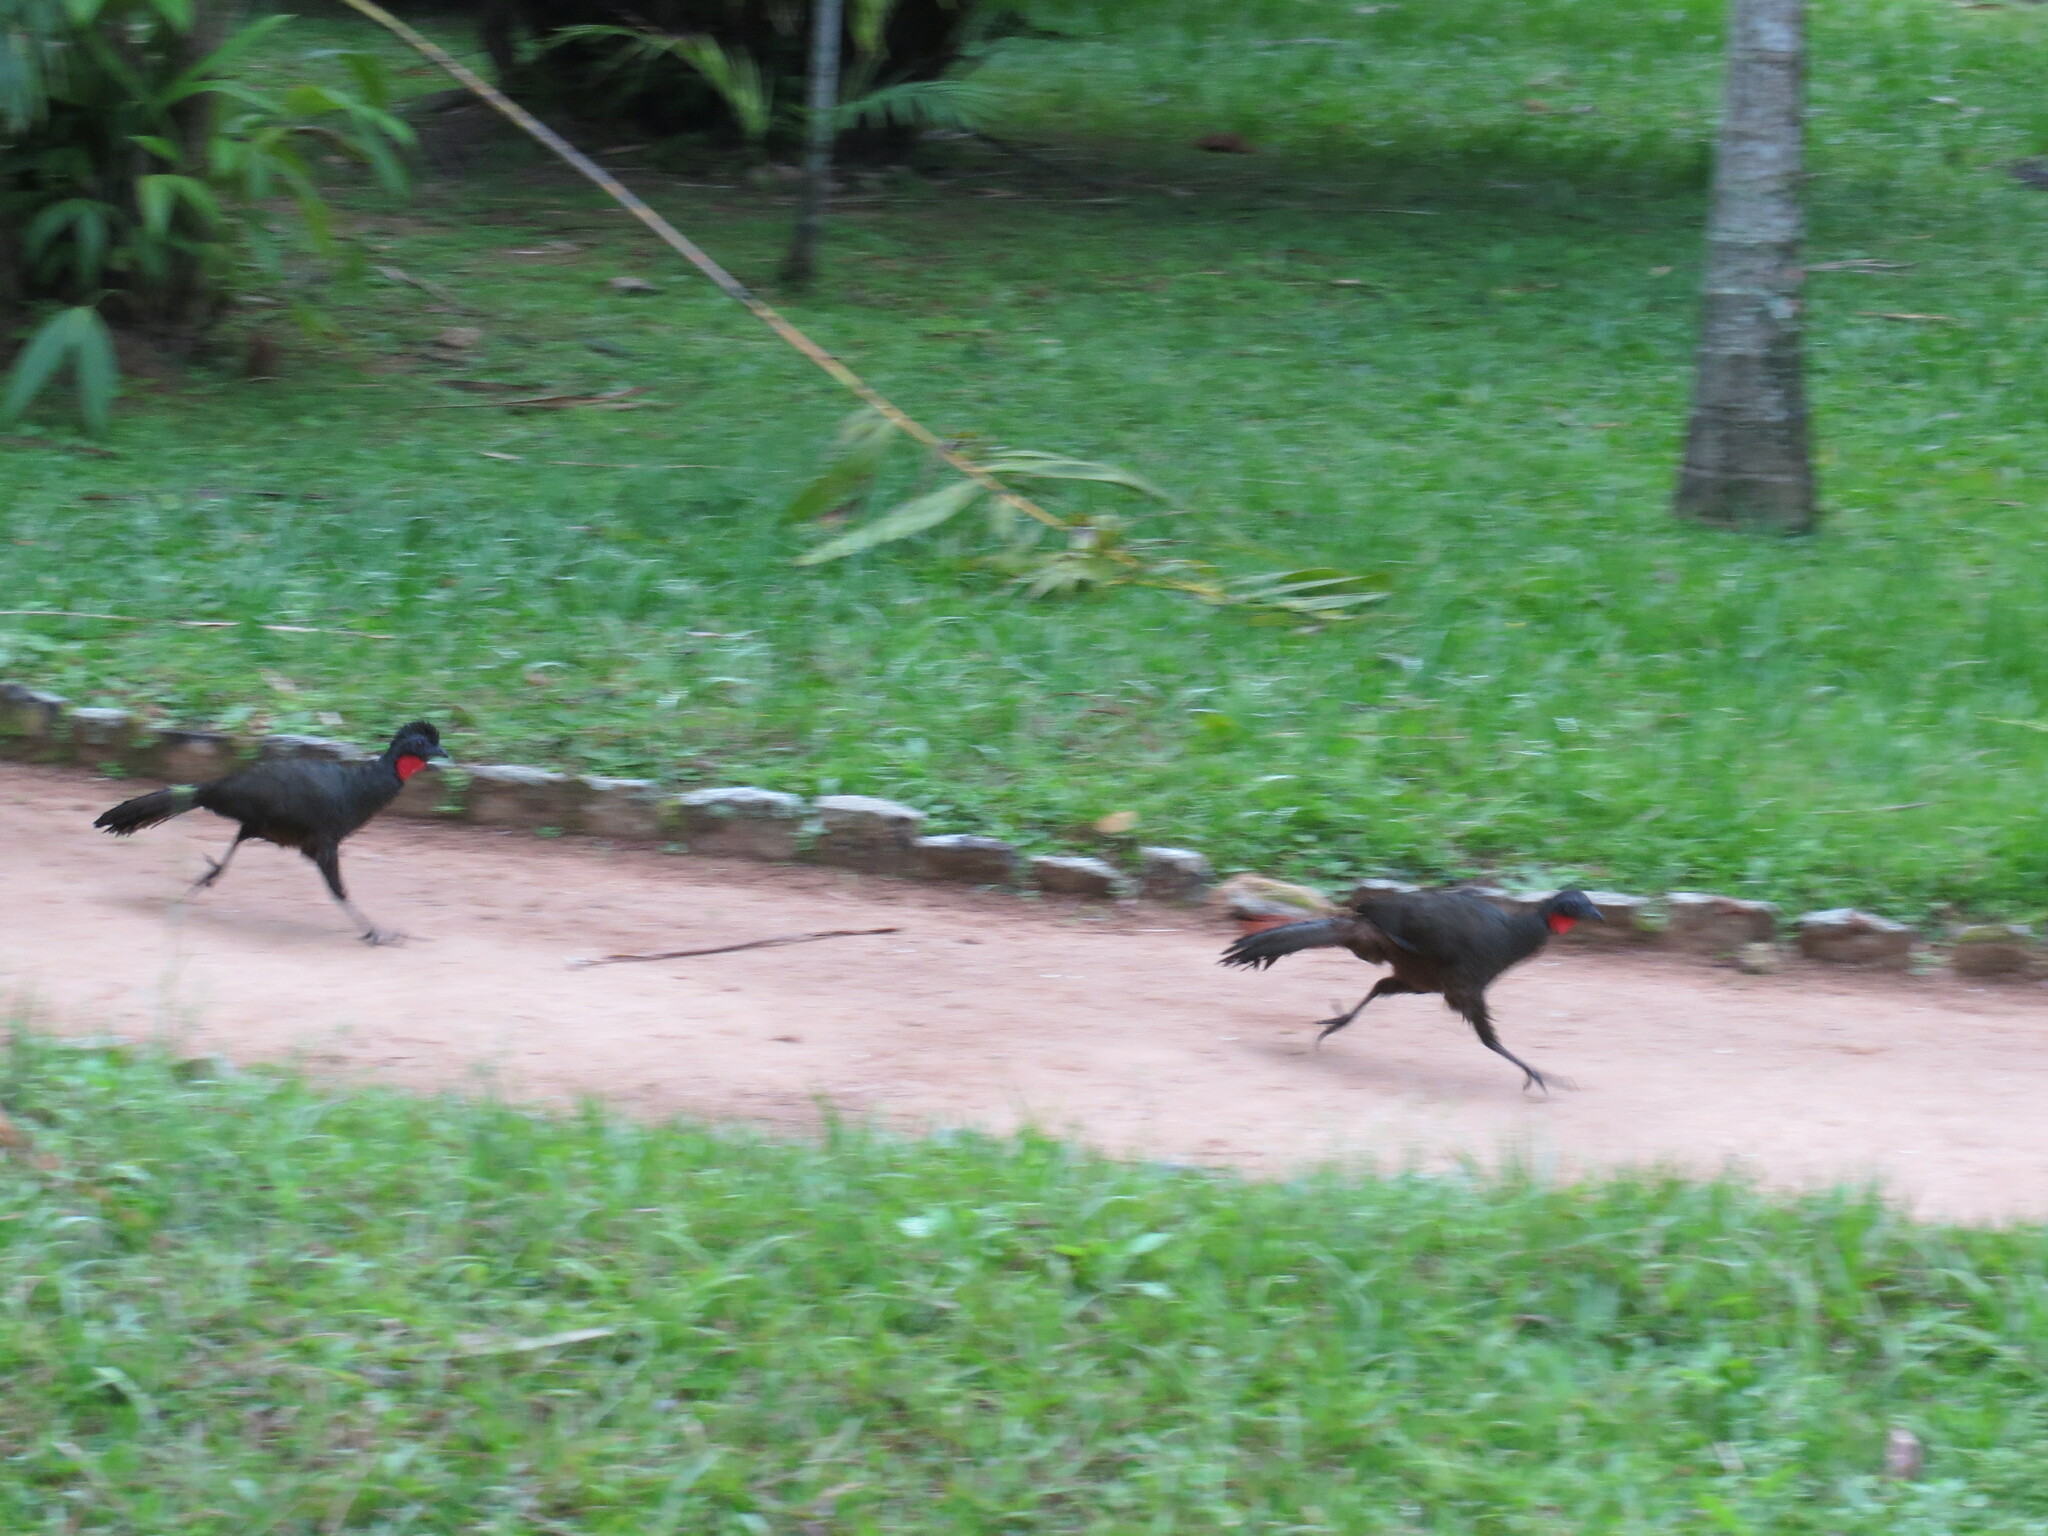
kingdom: Animalia
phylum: Chordata
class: Aves
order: Galliformes
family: Cracidae
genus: Penelope
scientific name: Penelope superciliaris
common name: Rusty-margined guan
